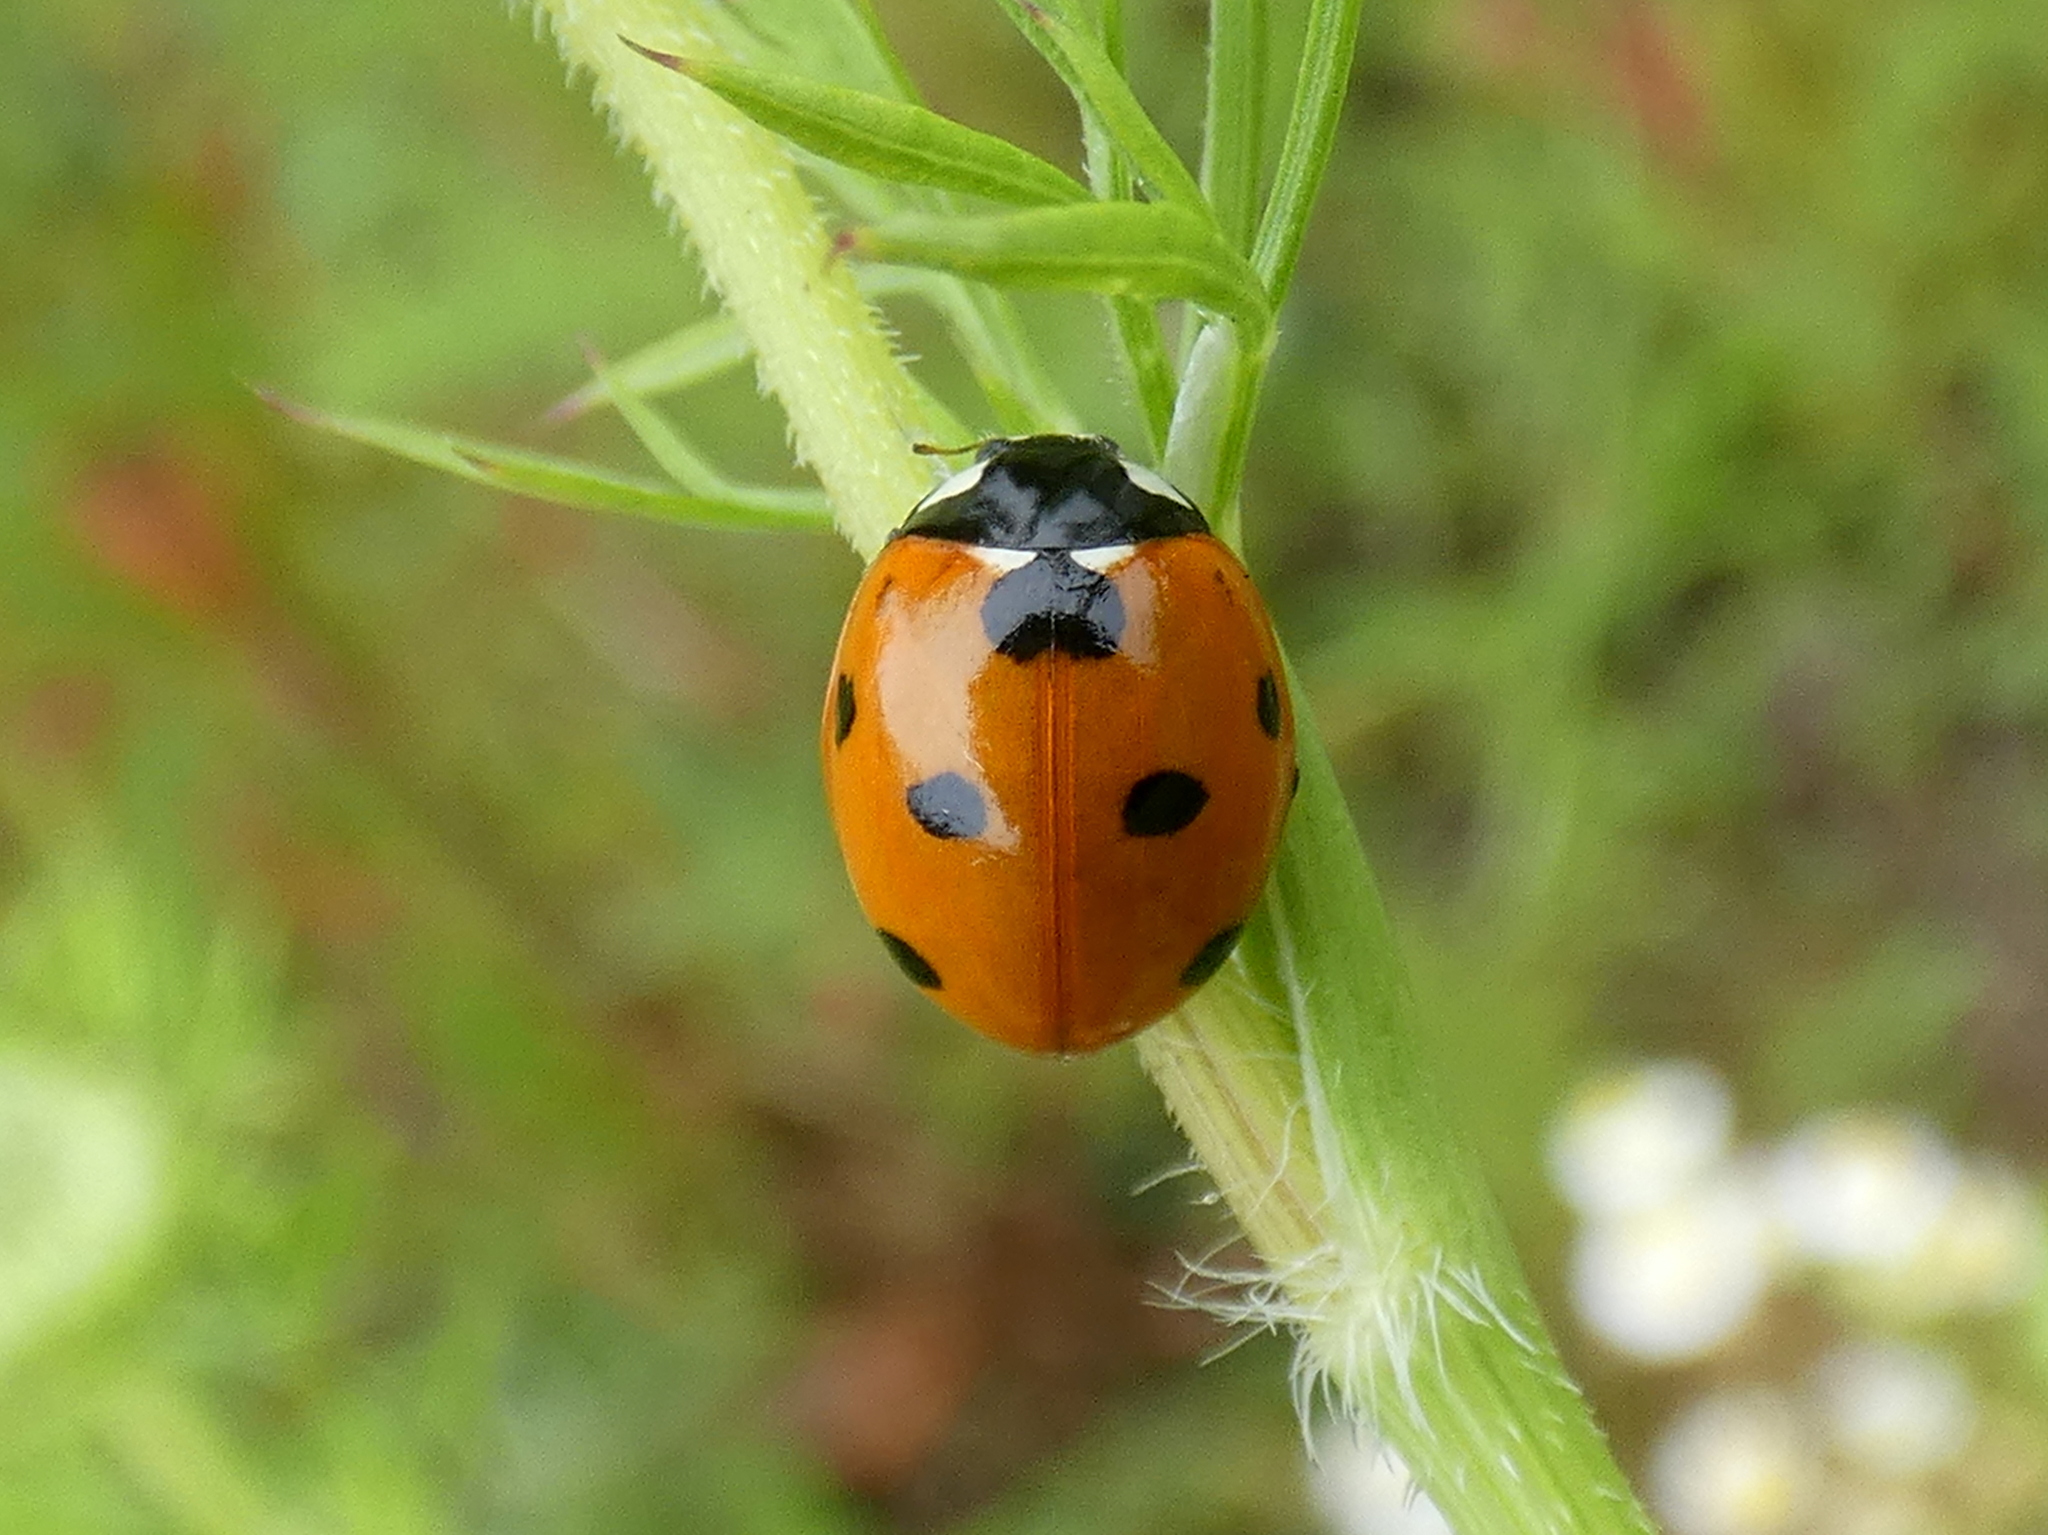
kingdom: Animalia
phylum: Arthropoda
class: Insecta
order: Coleoptera
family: Coccinellidae
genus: Coccinella
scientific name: Coccinella septempunctata
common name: Sevenspotted lady beetle
